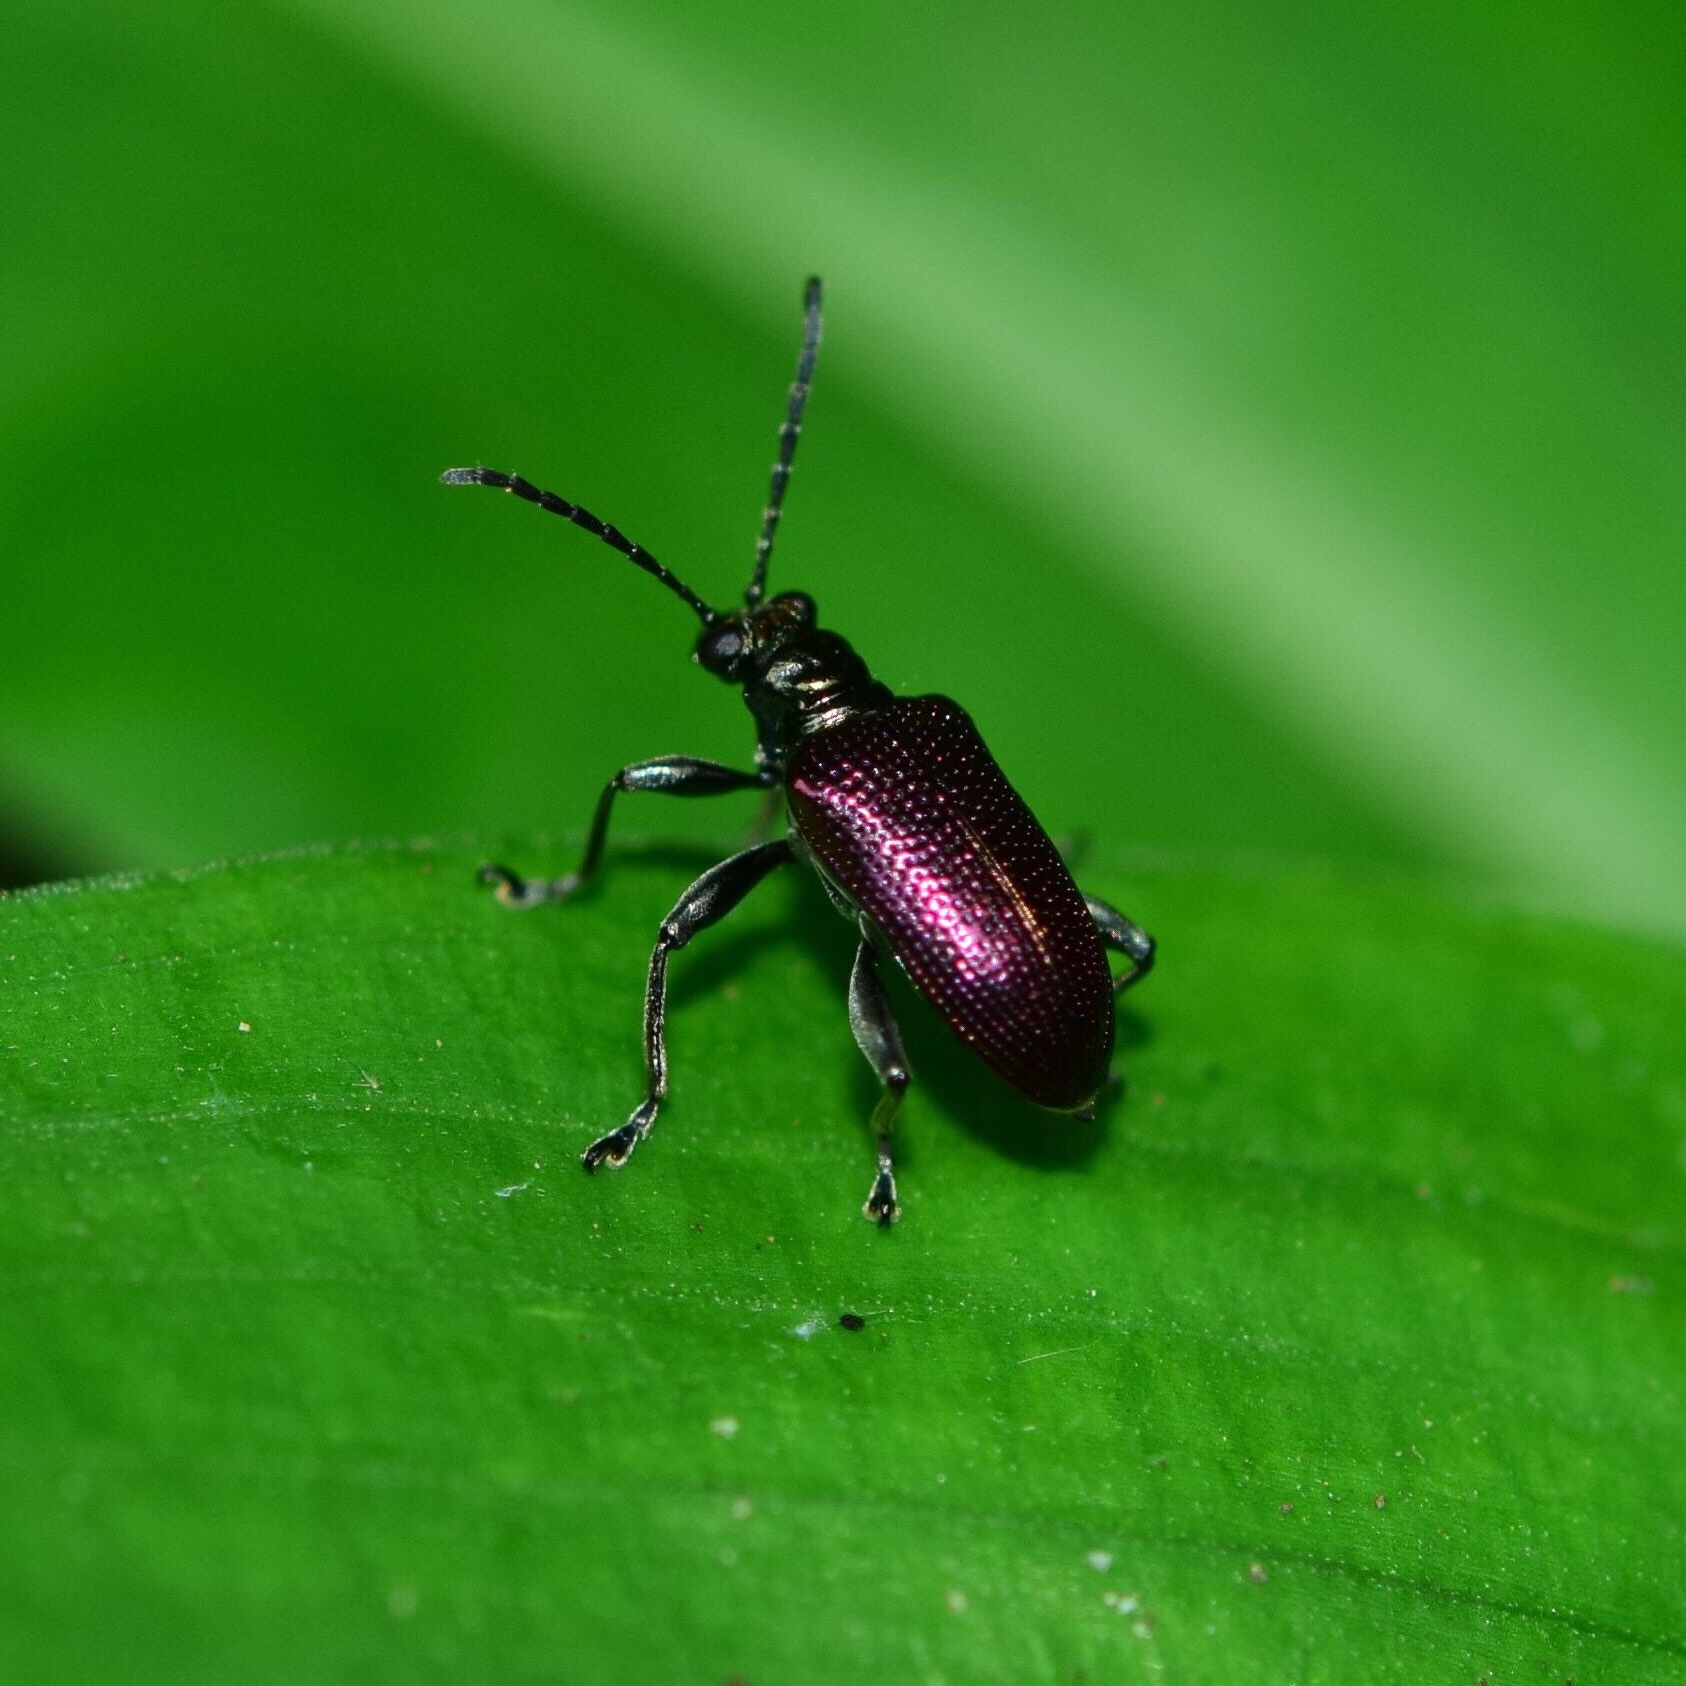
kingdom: Animalia
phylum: Arthropoda
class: Insecta
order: Coleoptera
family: Chrysomelidae
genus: Lema
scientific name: Lema
